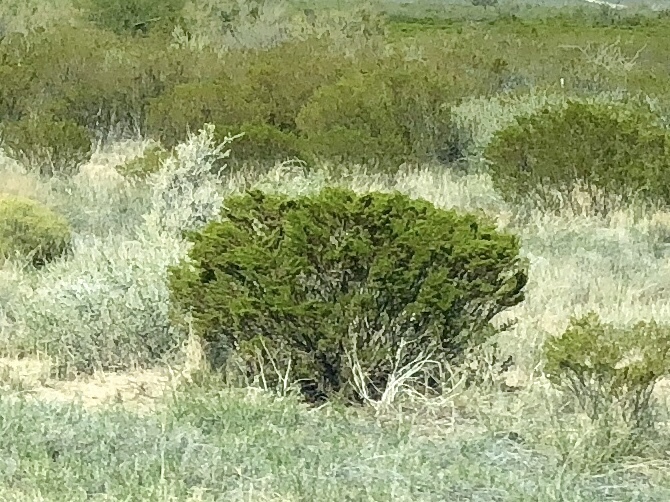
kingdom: Plantae
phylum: Tracheophyta
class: Magnoliopsida
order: Zygophyllales
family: Zygophyllaceae
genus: Larrea
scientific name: Larrea tridentata
